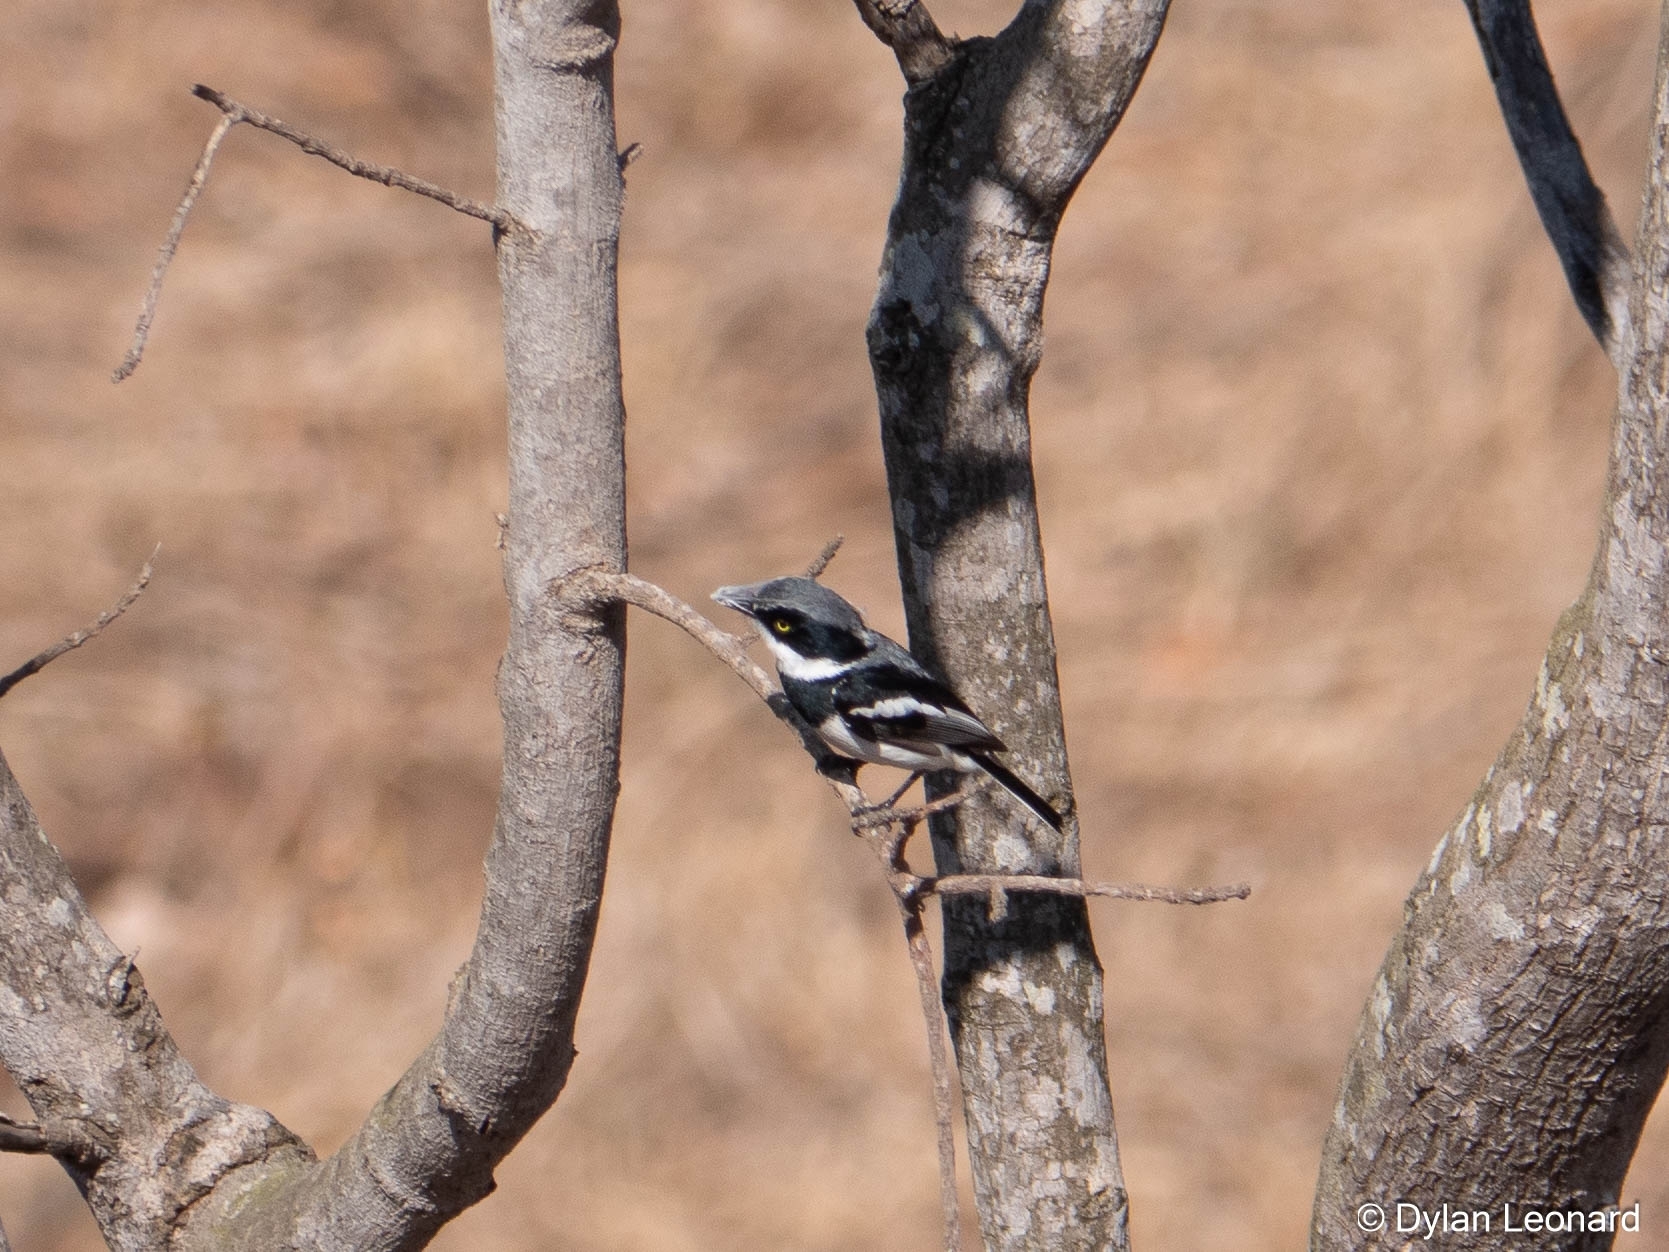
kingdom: Animalia
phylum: Chordata
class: Aves
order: Passeriformes
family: Platysteiridae
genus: Batis
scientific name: Batis molitor
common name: Chinspot batis
